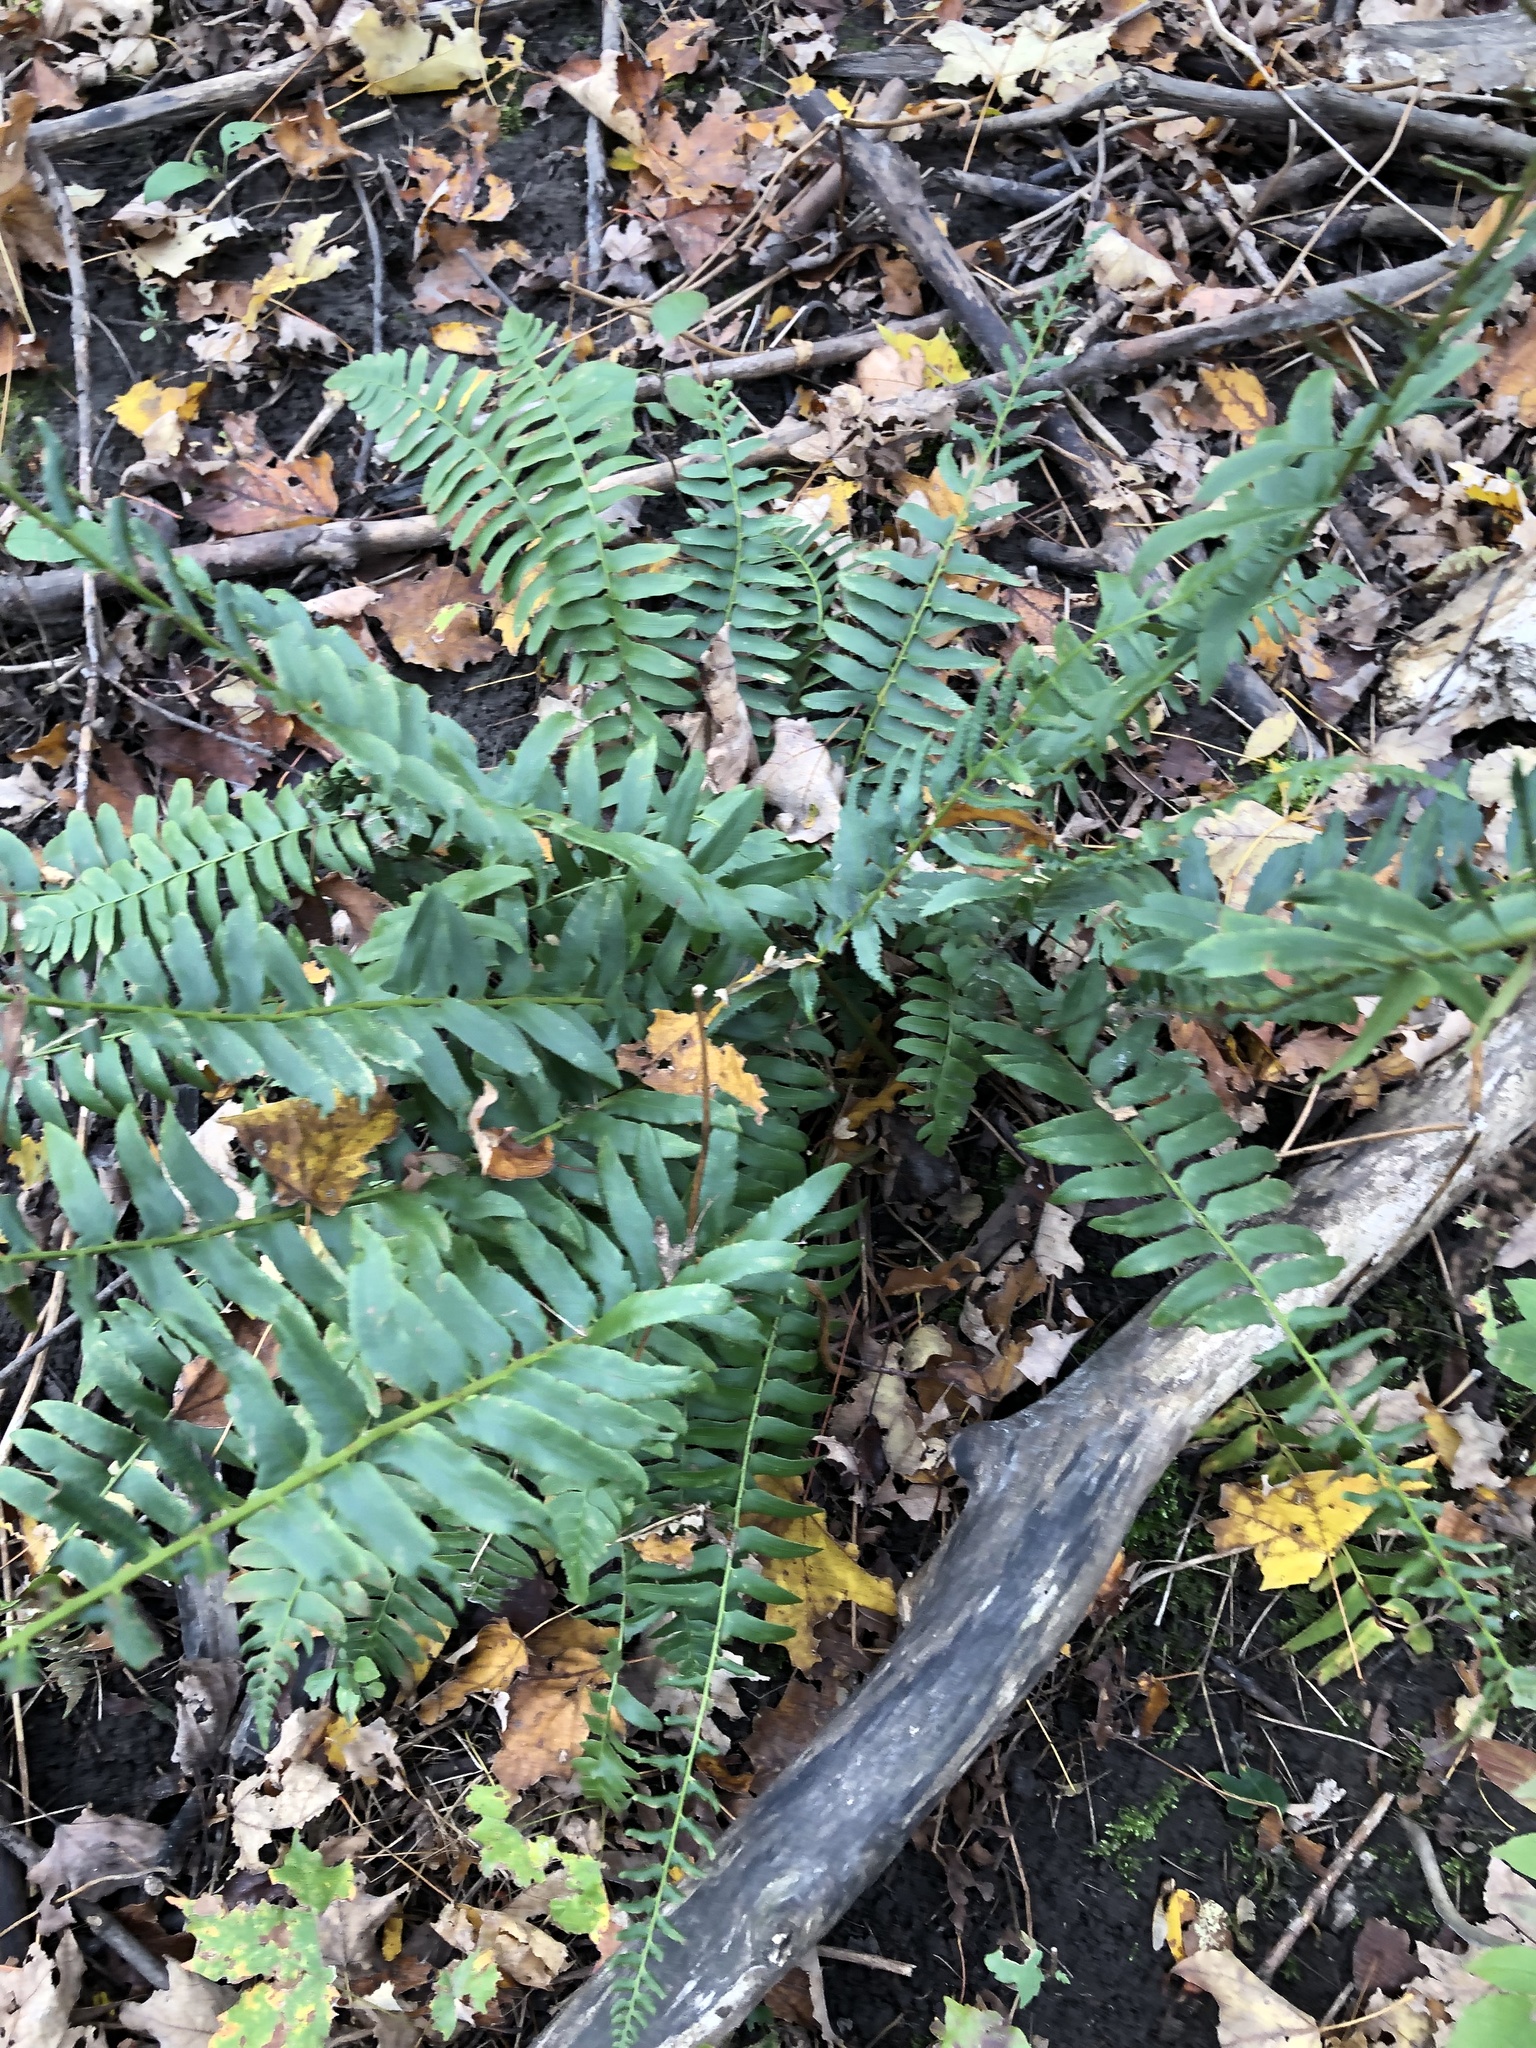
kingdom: Plantae
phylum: Tracheophyta
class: Polypodiopsida
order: Polypodiales
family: Dryopteridaceae
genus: Polystichum
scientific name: Polystichum acrostichoides
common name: Christmas fern
